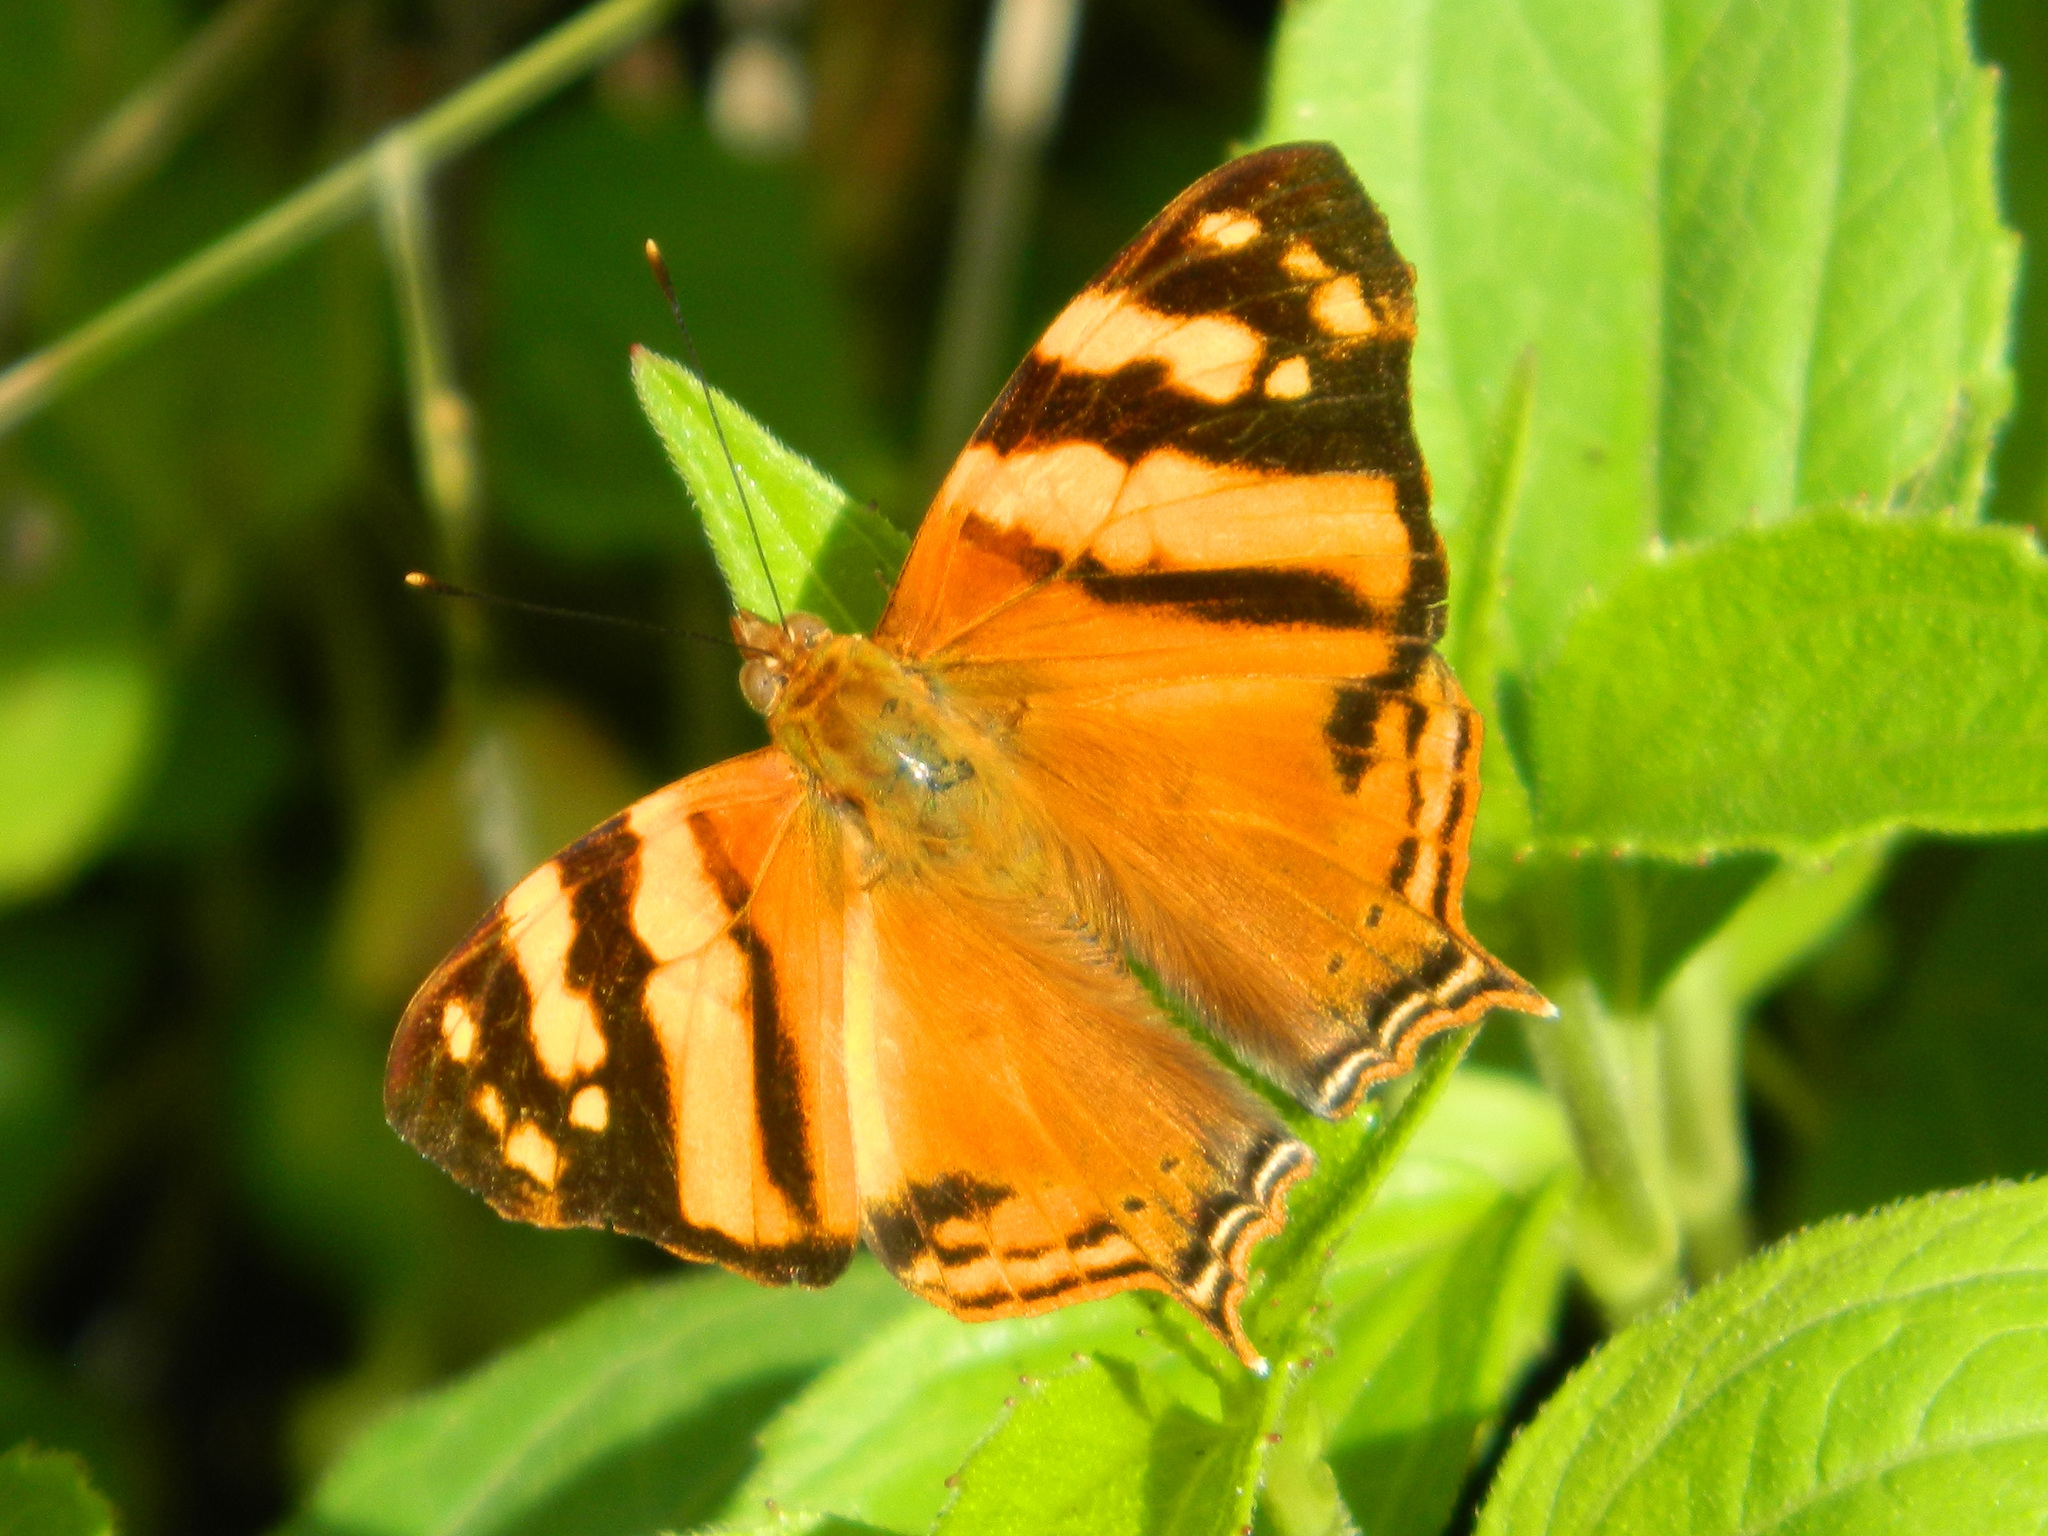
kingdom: Animalia
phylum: Arthropoda
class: Insecta
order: Lepidoptera
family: Nymphalidae
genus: Hypanartia
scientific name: Hypanartia lethe
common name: Orange mapwing
